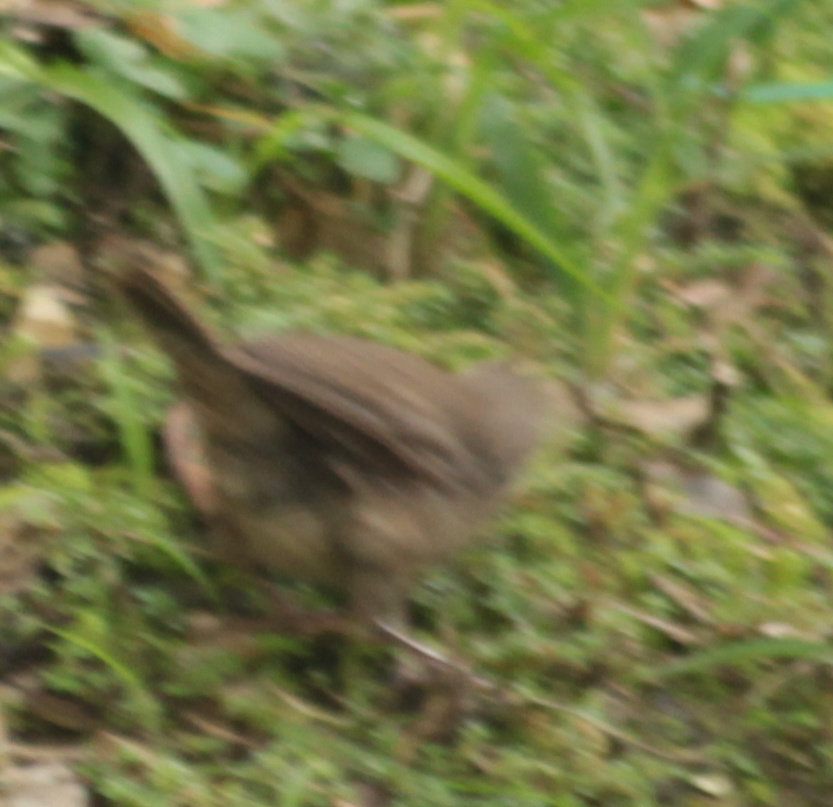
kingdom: Animalia
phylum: Chordata
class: Aves
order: Passeriformes
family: Troglodytidae
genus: Troglodytes
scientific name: Troglodytes aedon
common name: House wren
